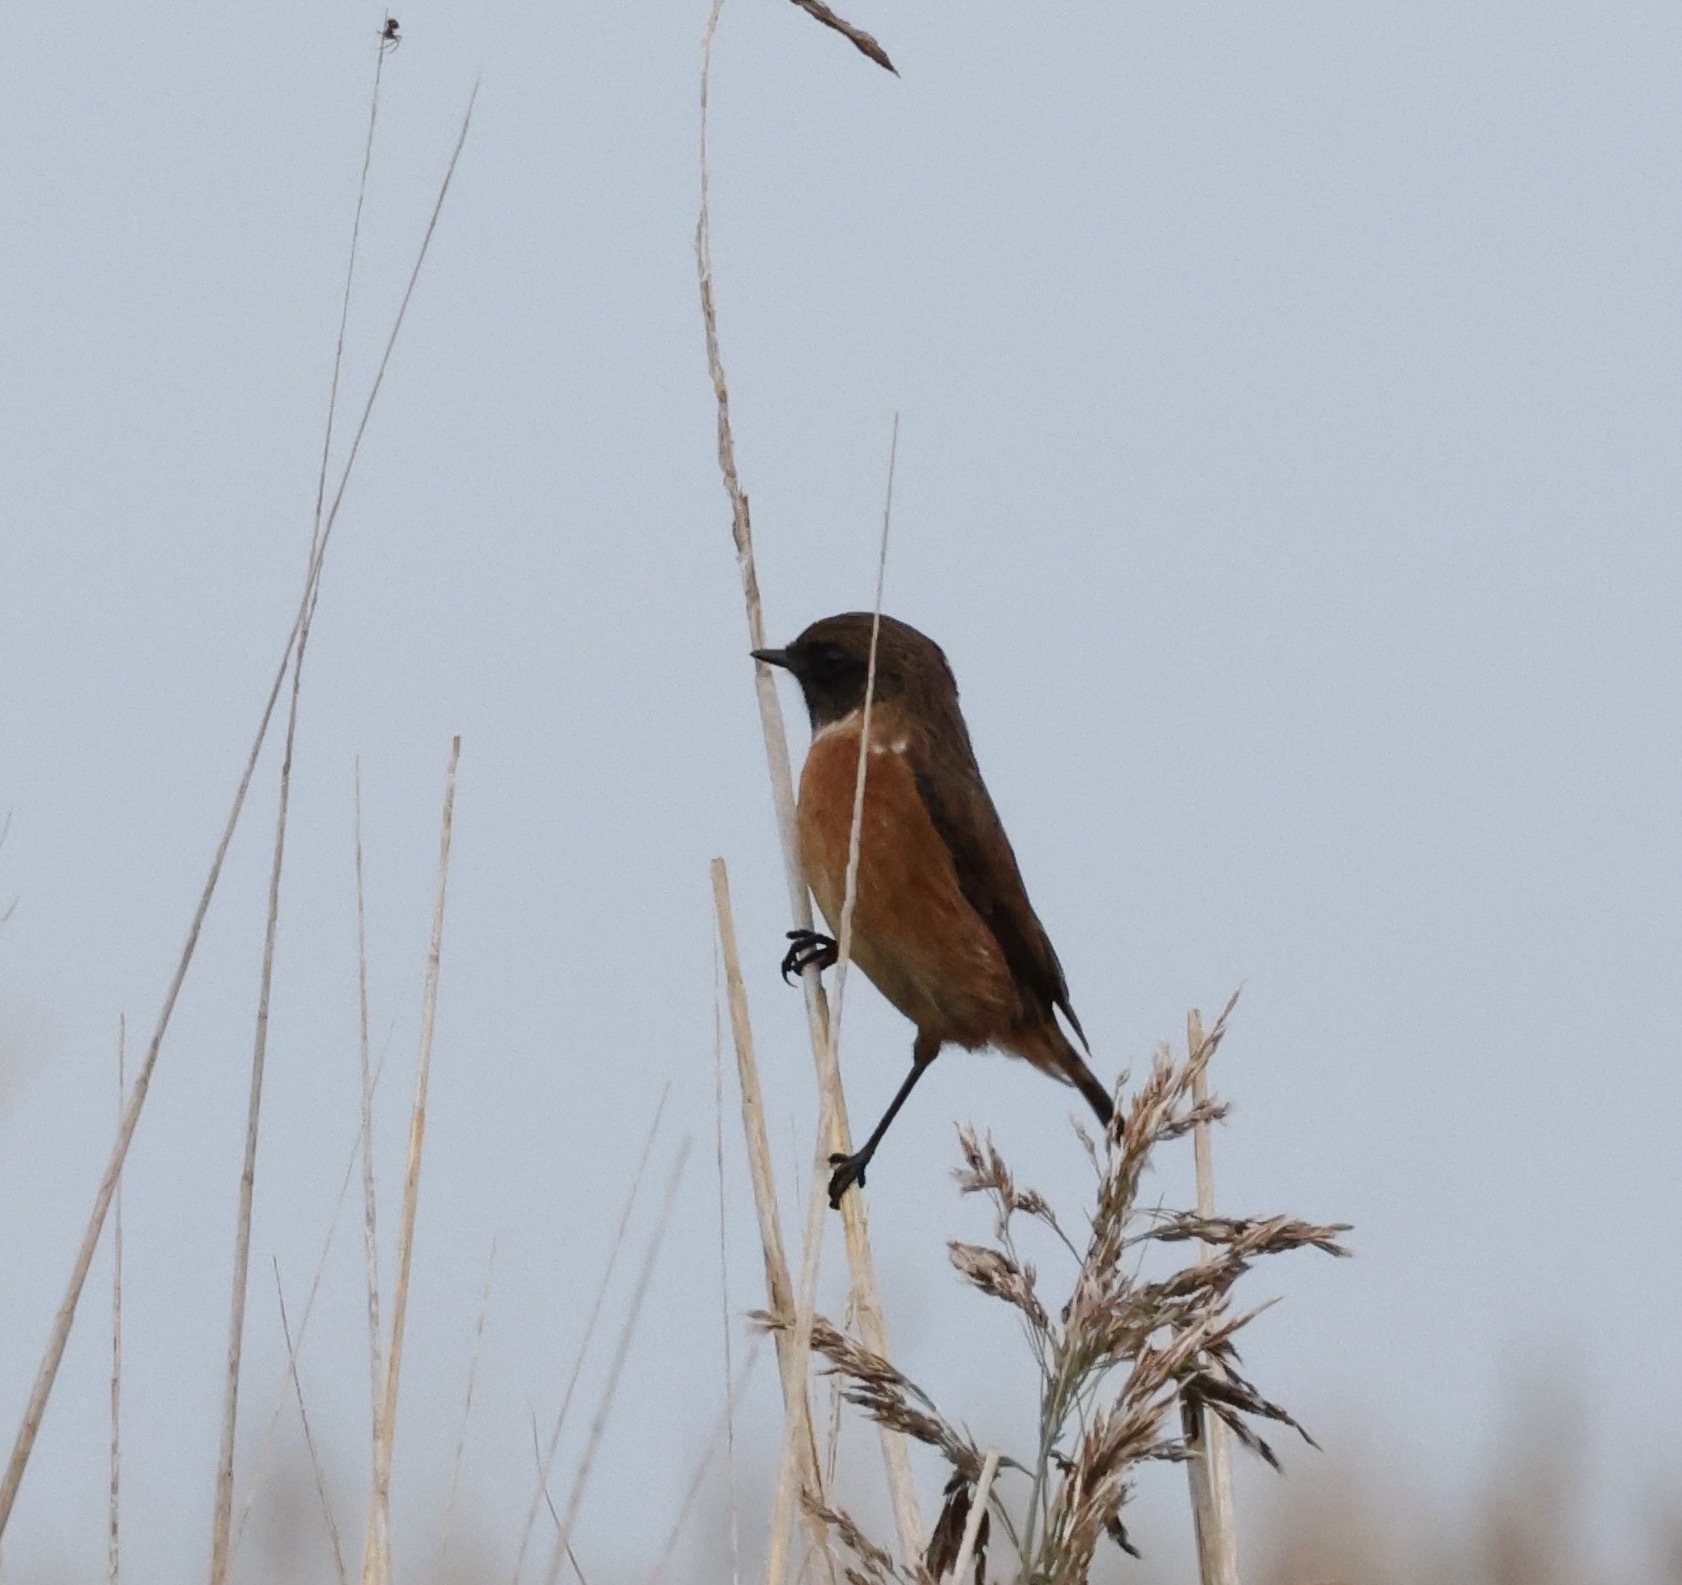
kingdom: Animalia
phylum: Chordata
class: Aves
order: Passeriformes
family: Muscicapidae
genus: Saxicola
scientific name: Saxicola rubicola
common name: European stonechat
